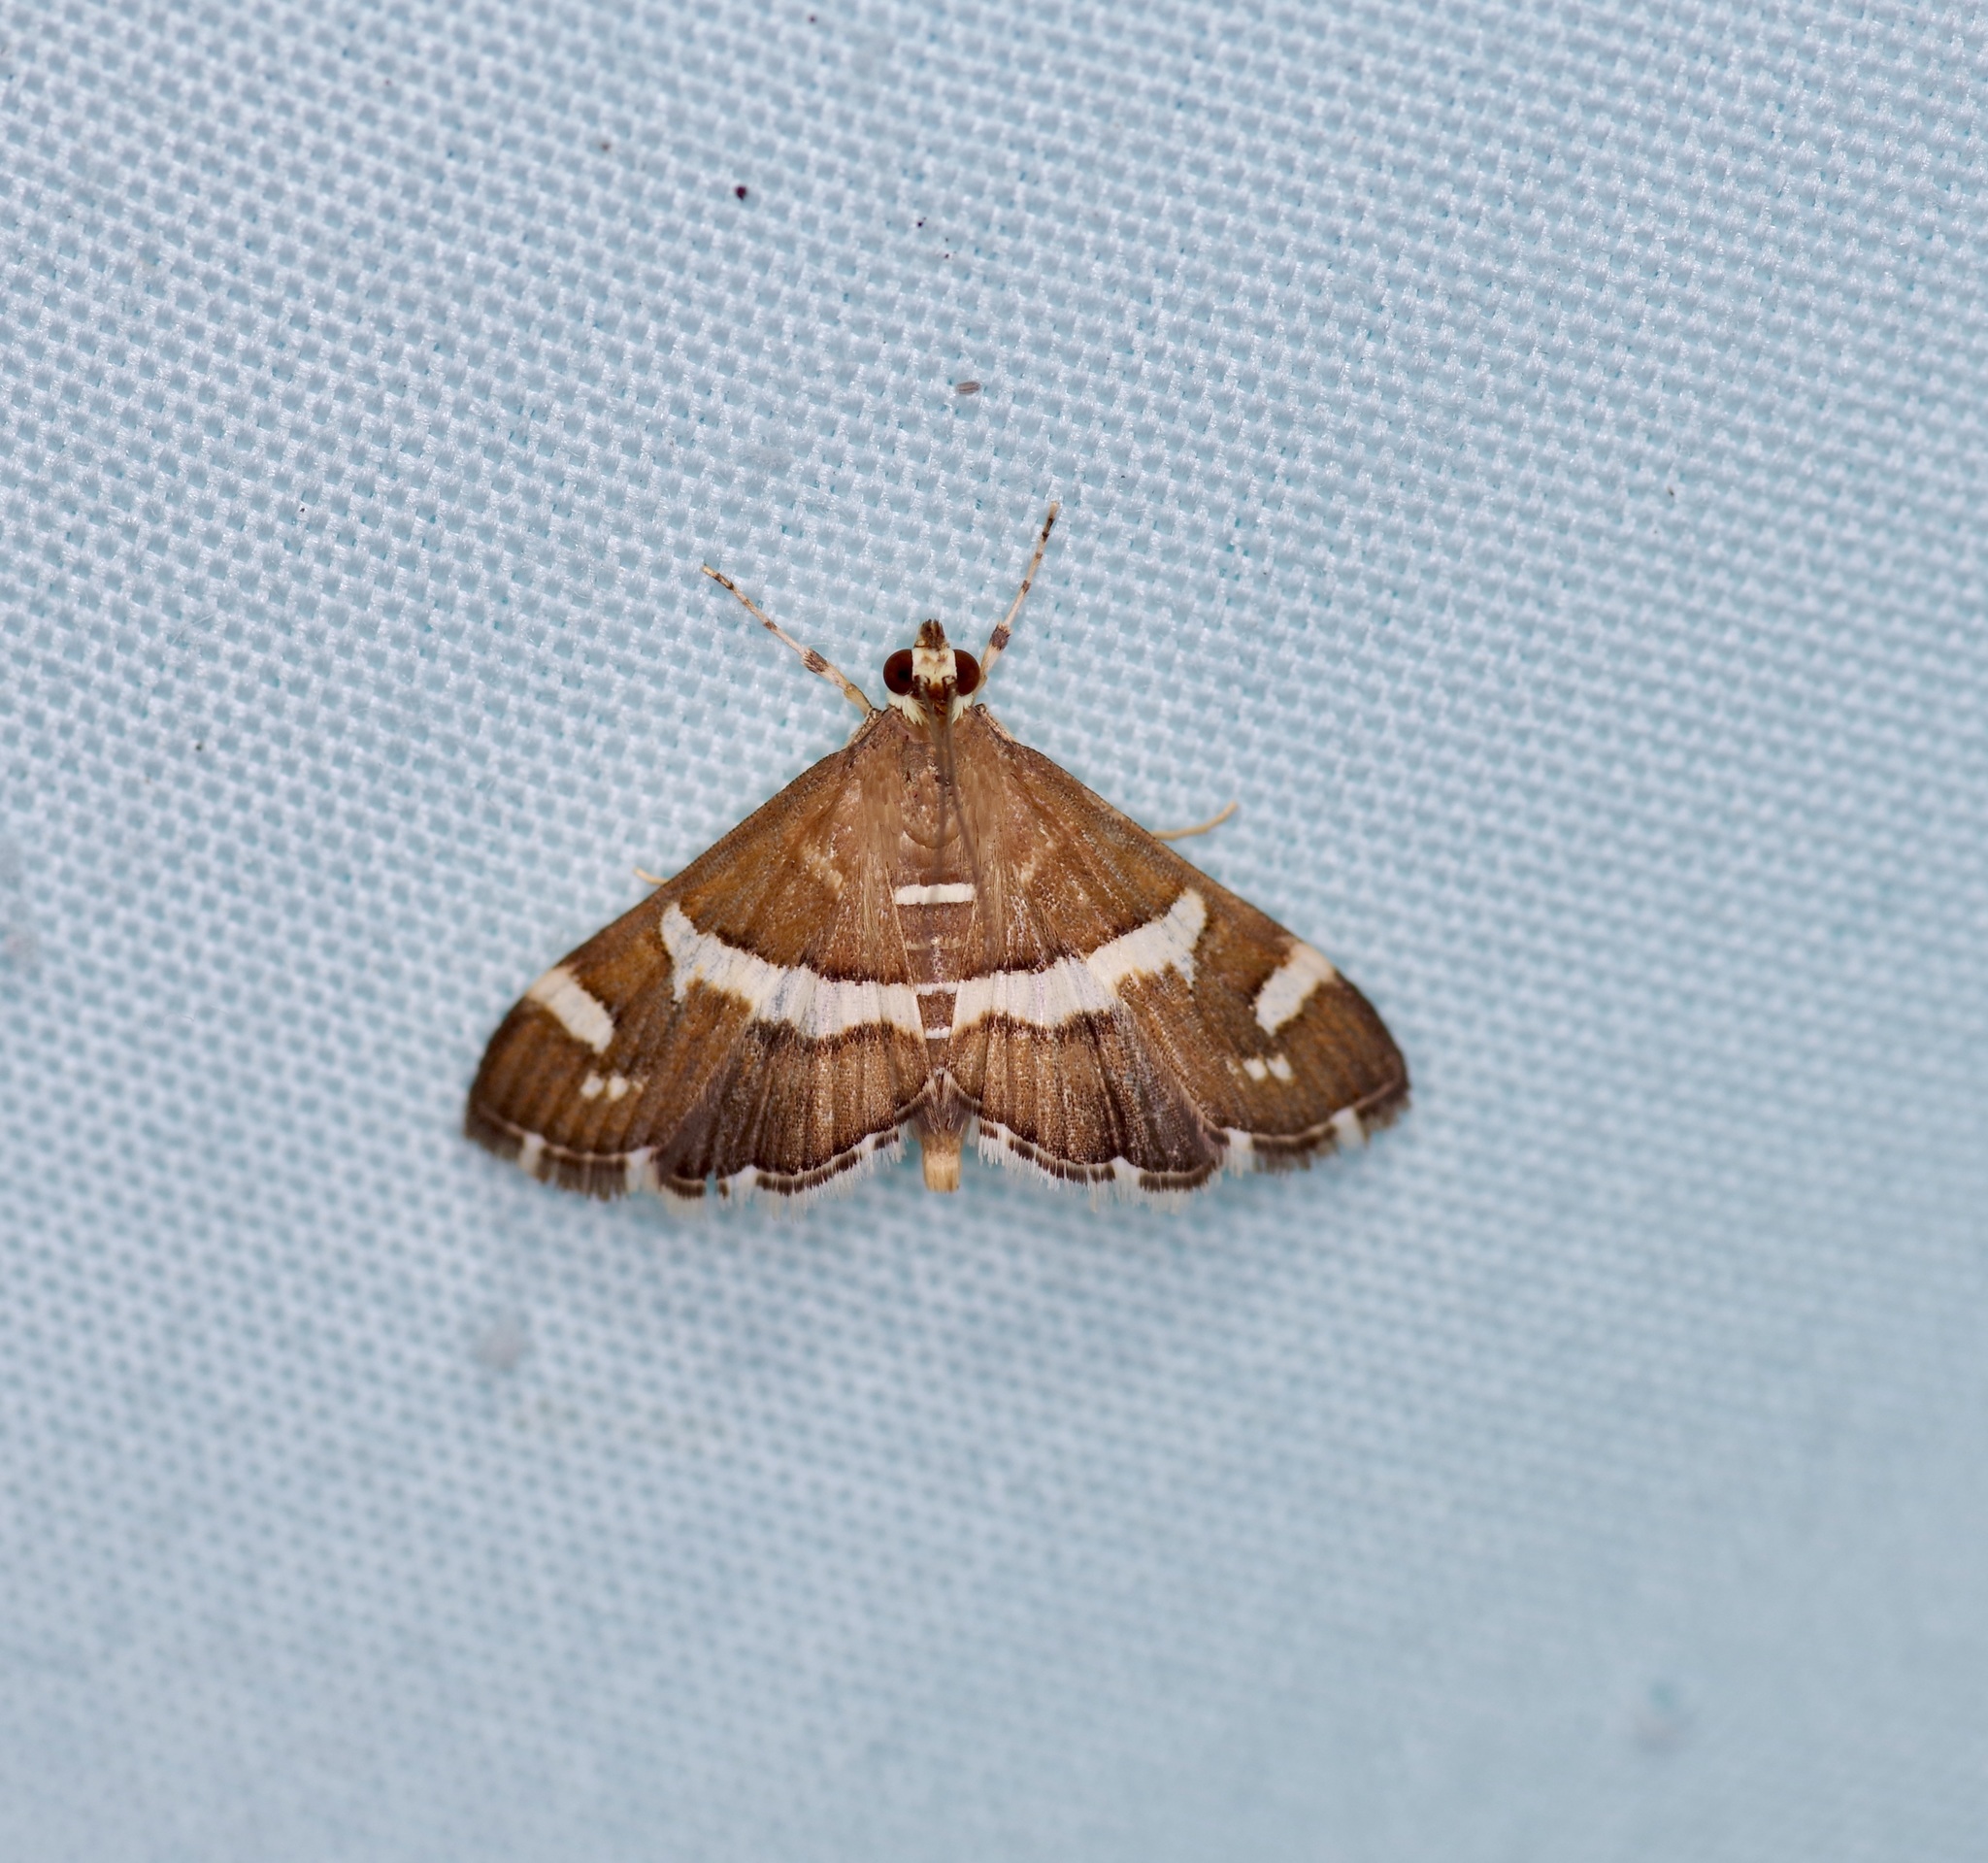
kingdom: Animalia
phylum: Arthropoda
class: Insecta
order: Lepidoptera
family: Crambidae
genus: Spoladea
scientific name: Spoladea recurvalis
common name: Beet webworm moth
